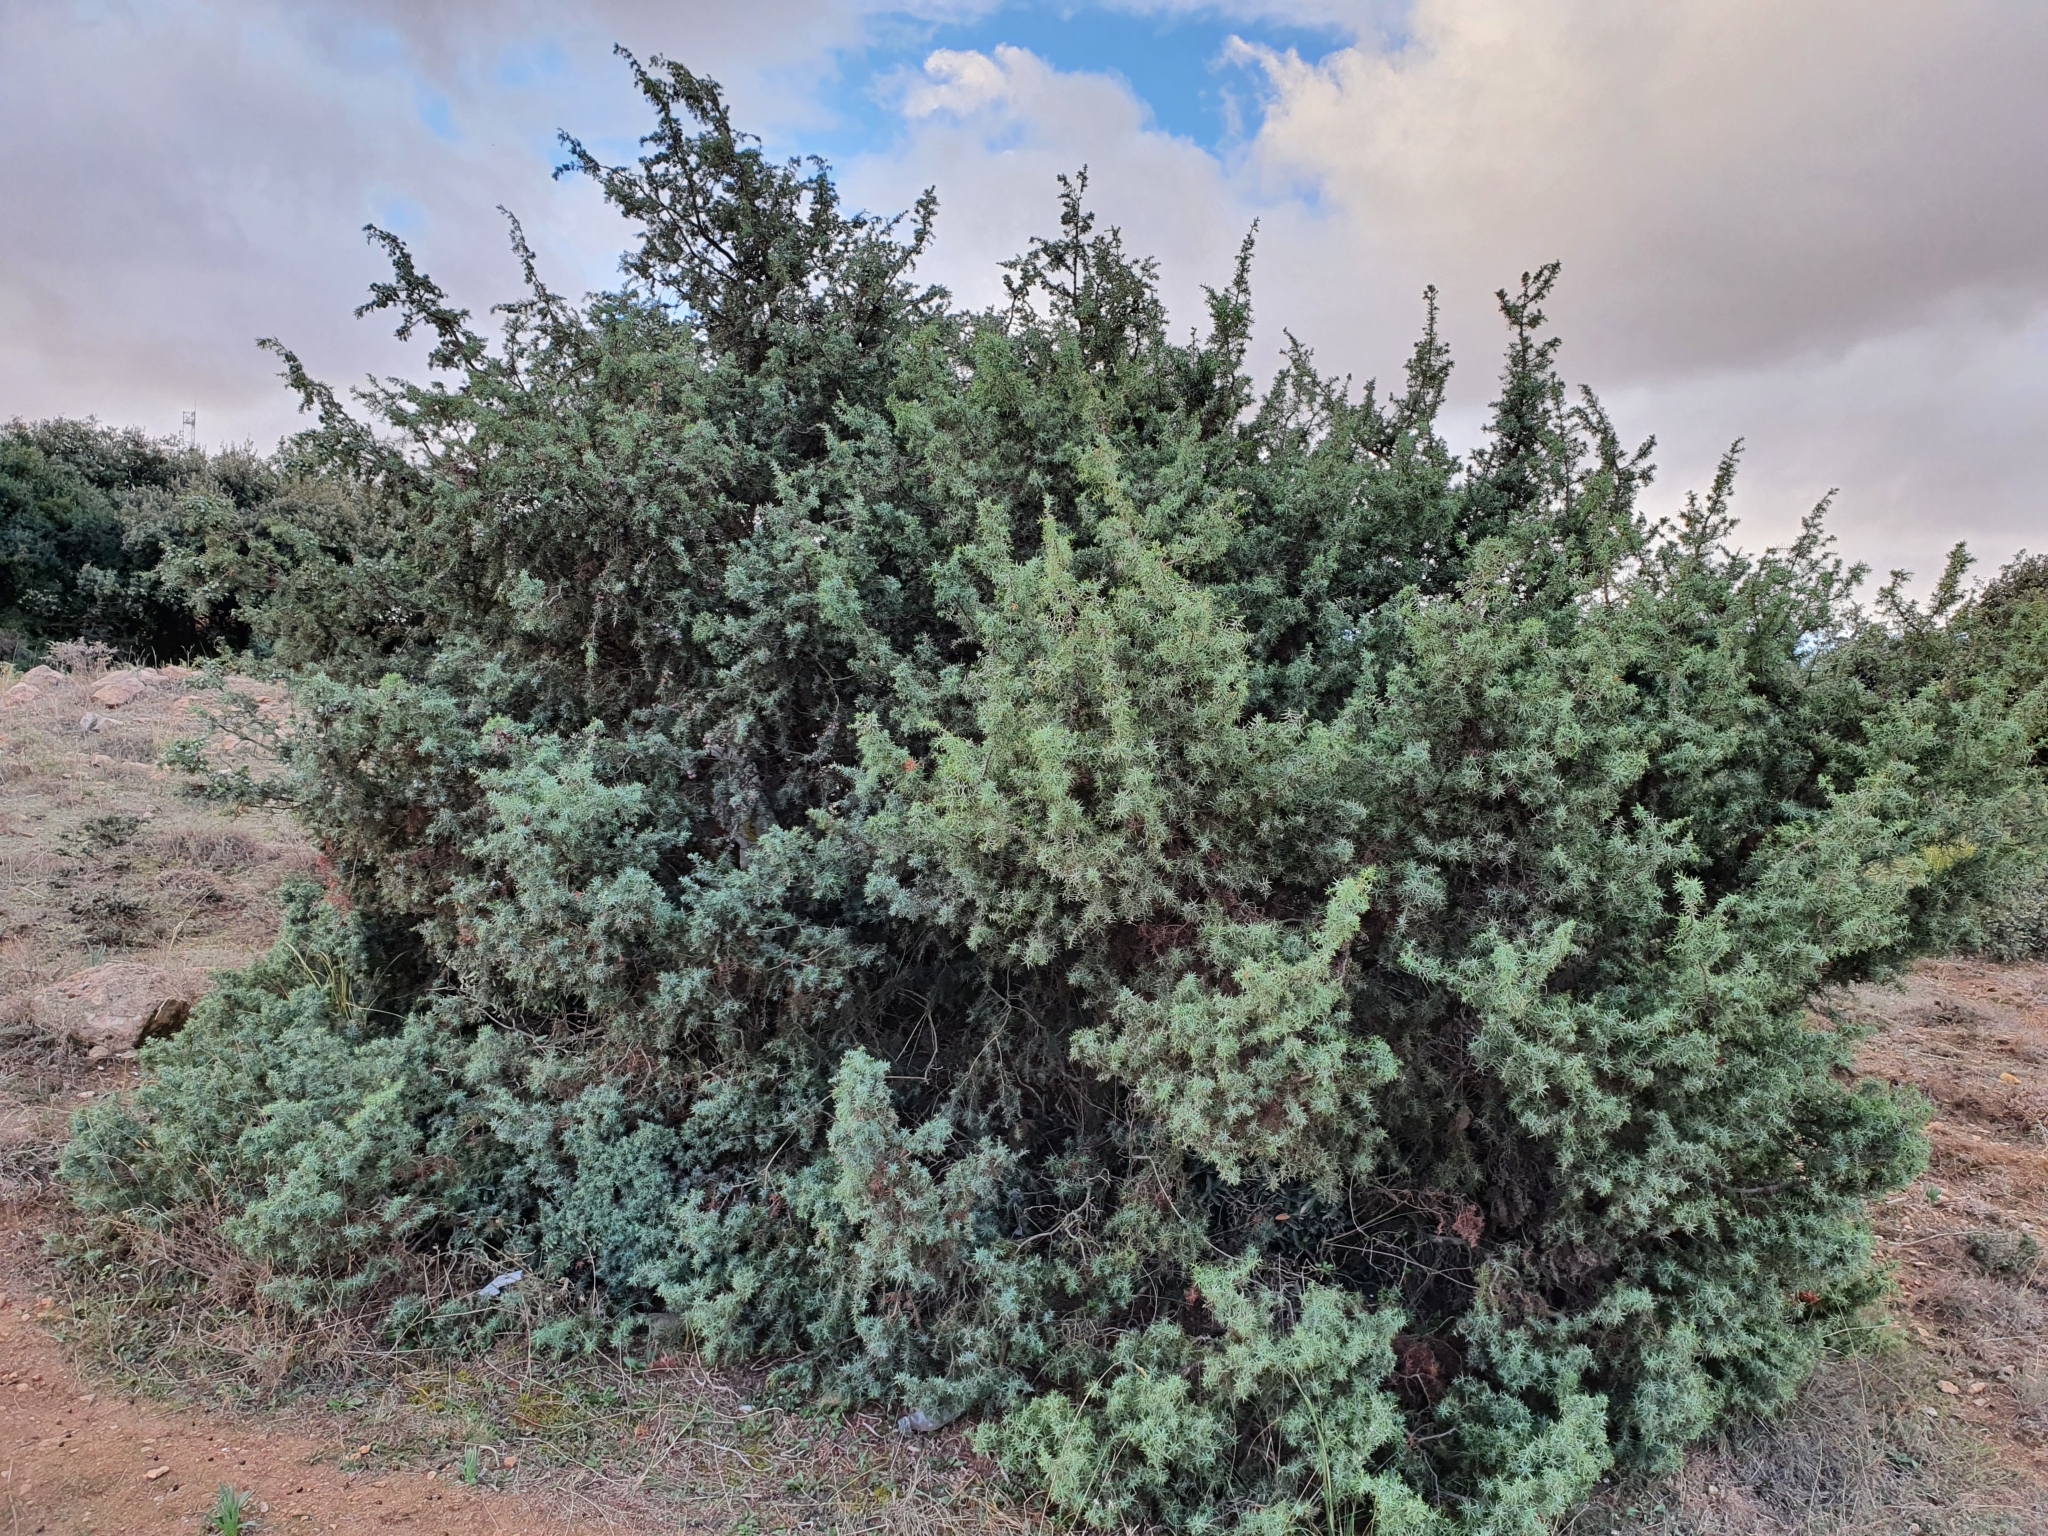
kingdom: Plantae
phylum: Tracheophyta
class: Pinopsida
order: Pinales
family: Cupressaceae
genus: Juniperus
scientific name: Juniperus oxycedrus
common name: Prickly juniper
